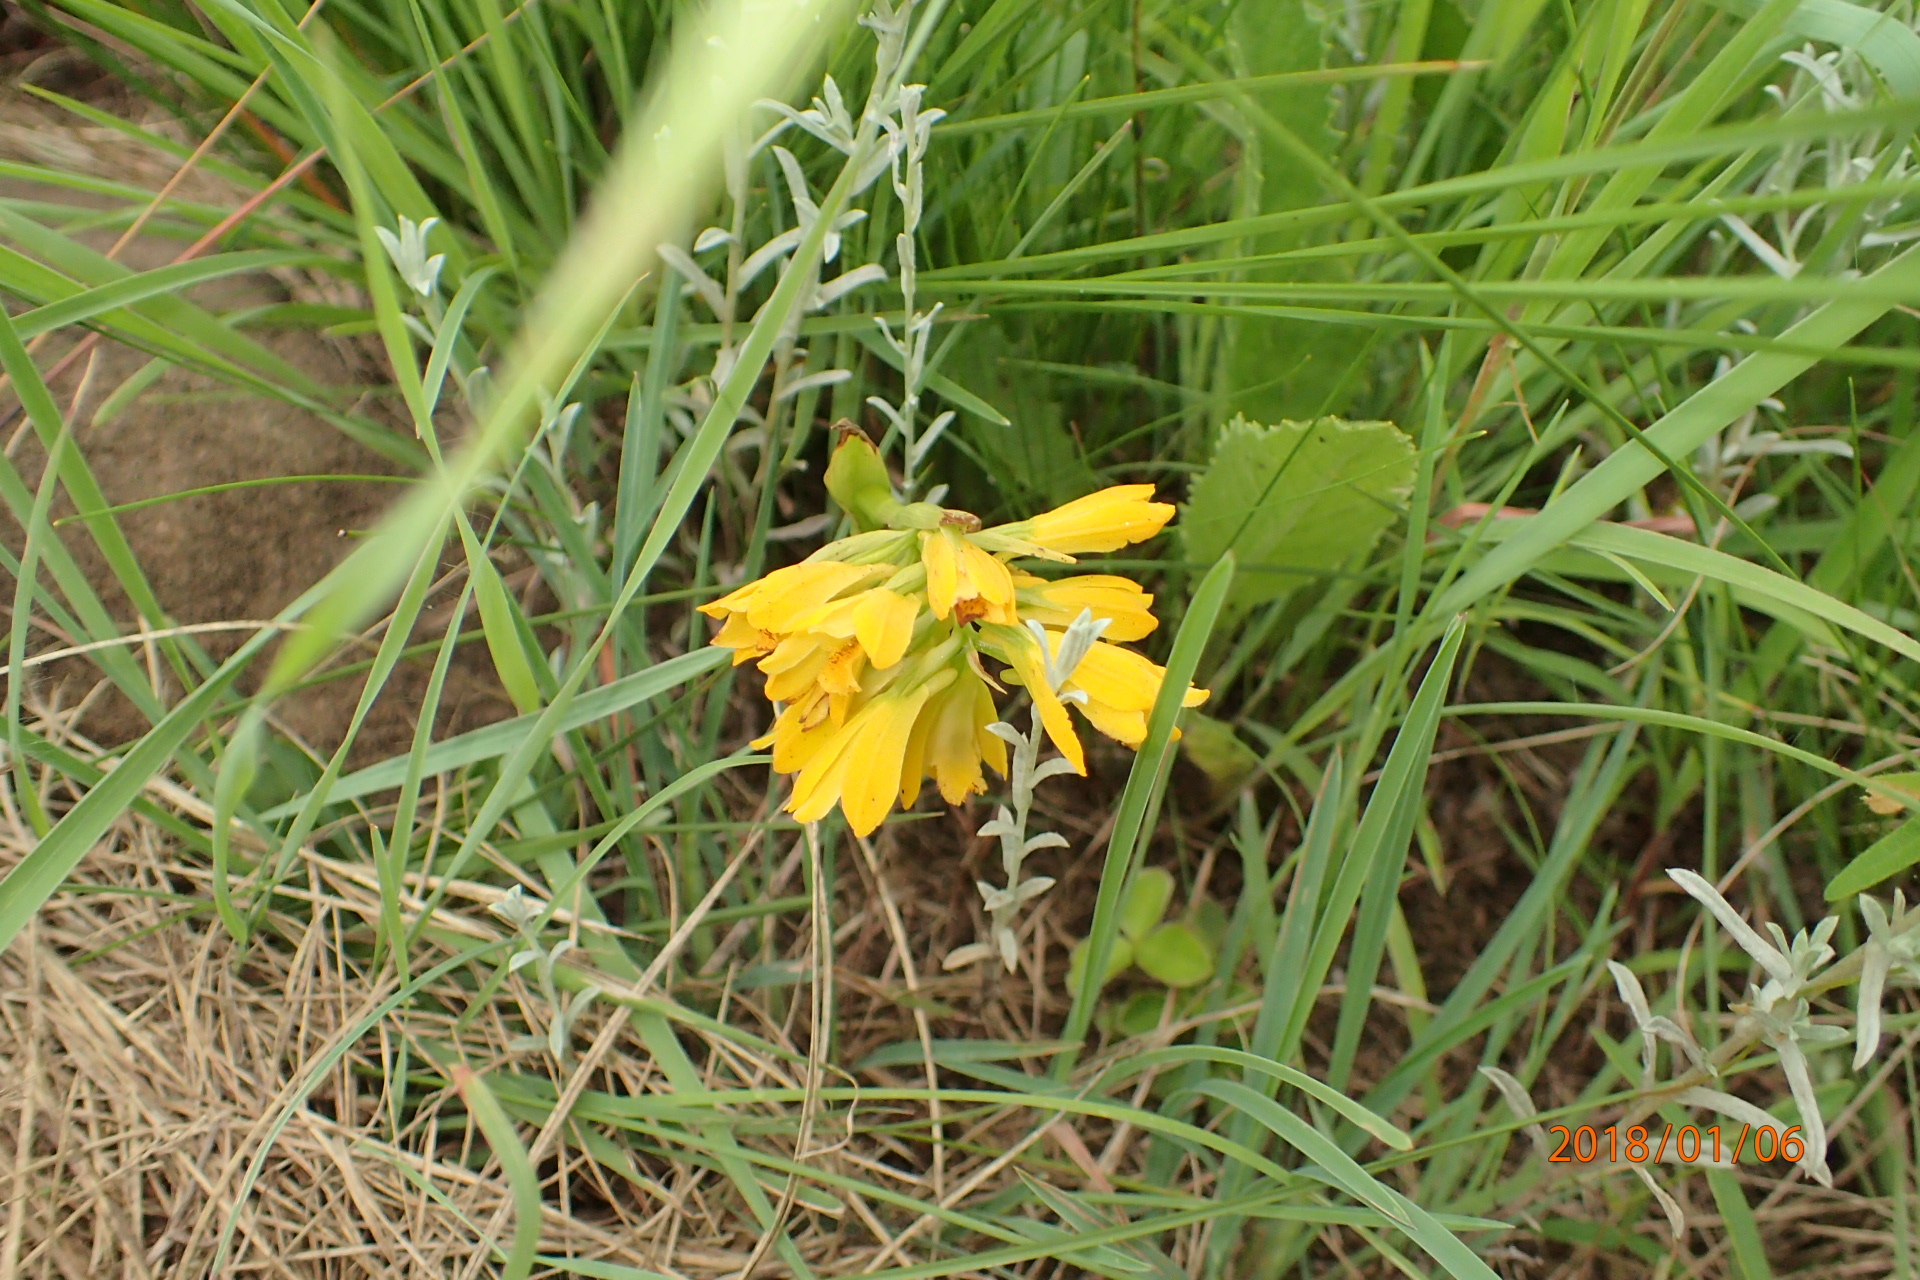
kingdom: Plantae
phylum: Tracheophyta
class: Liliopsida
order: Asparagales
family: Orchidaceae
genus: Eulophia
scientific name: Eulophia ensata
